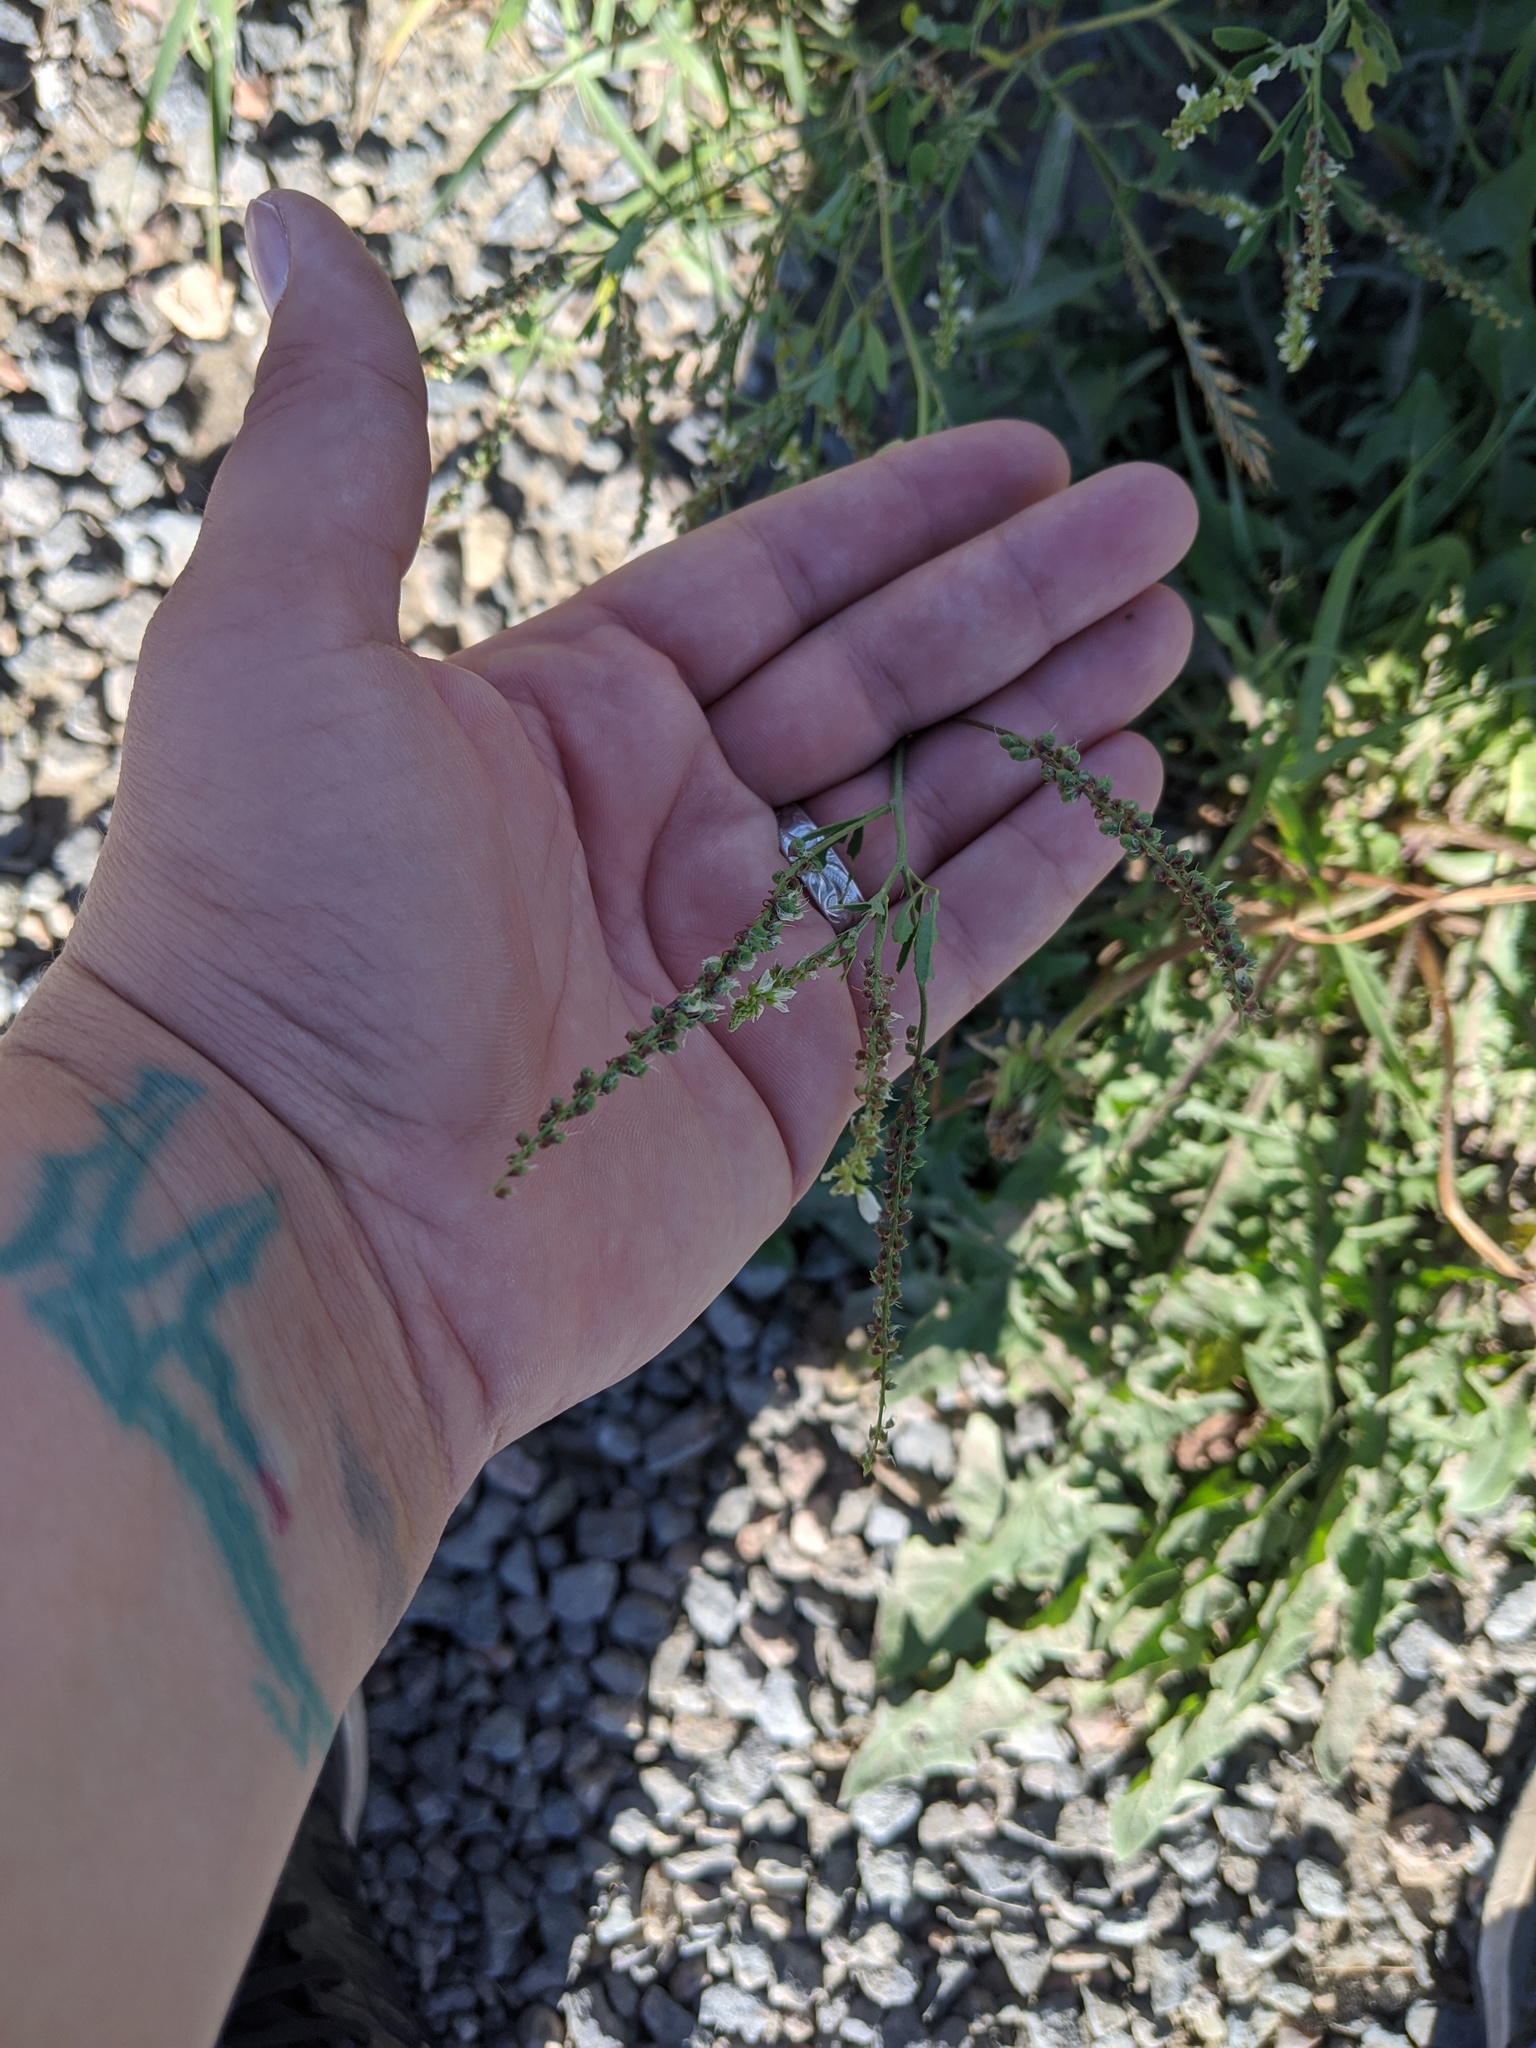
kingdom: Plantae
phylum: Tracheophyta
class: Magnoliopsida
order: Fabales
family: Fabaceae
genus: Melilotus
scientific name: Melilotus albus
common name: White melilot
